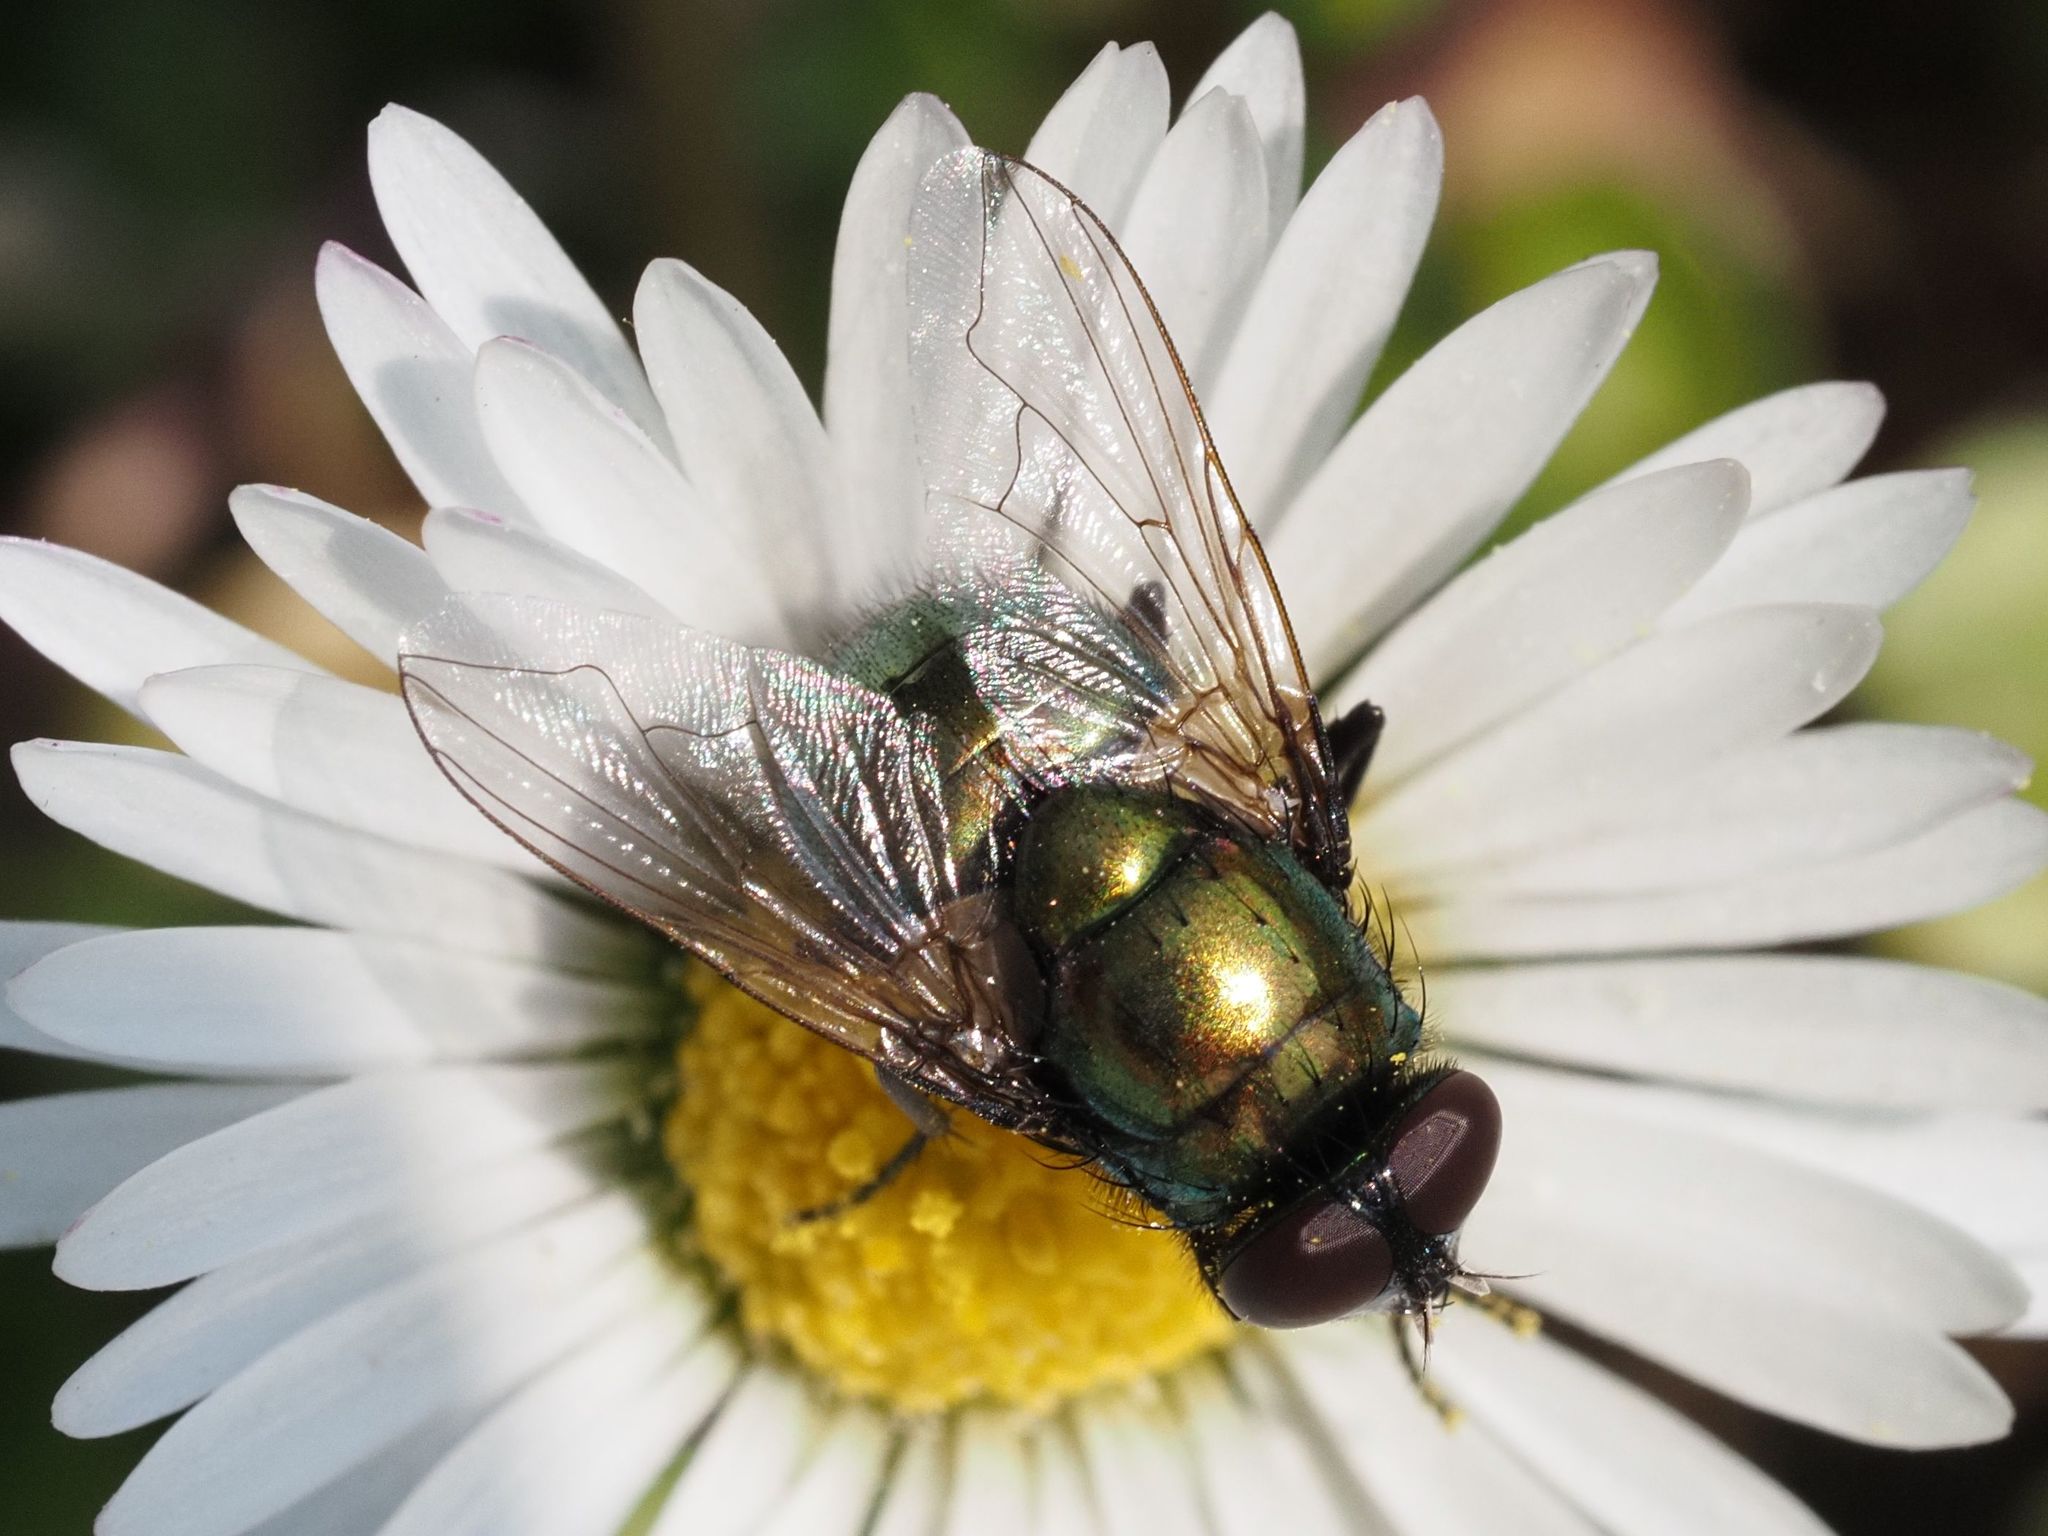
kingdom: Animalia
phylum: Arthropoda
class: Insecta
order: Diptera
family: Muscidae
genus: Neomyia
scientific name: Neomyia cornicina
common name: House fly
